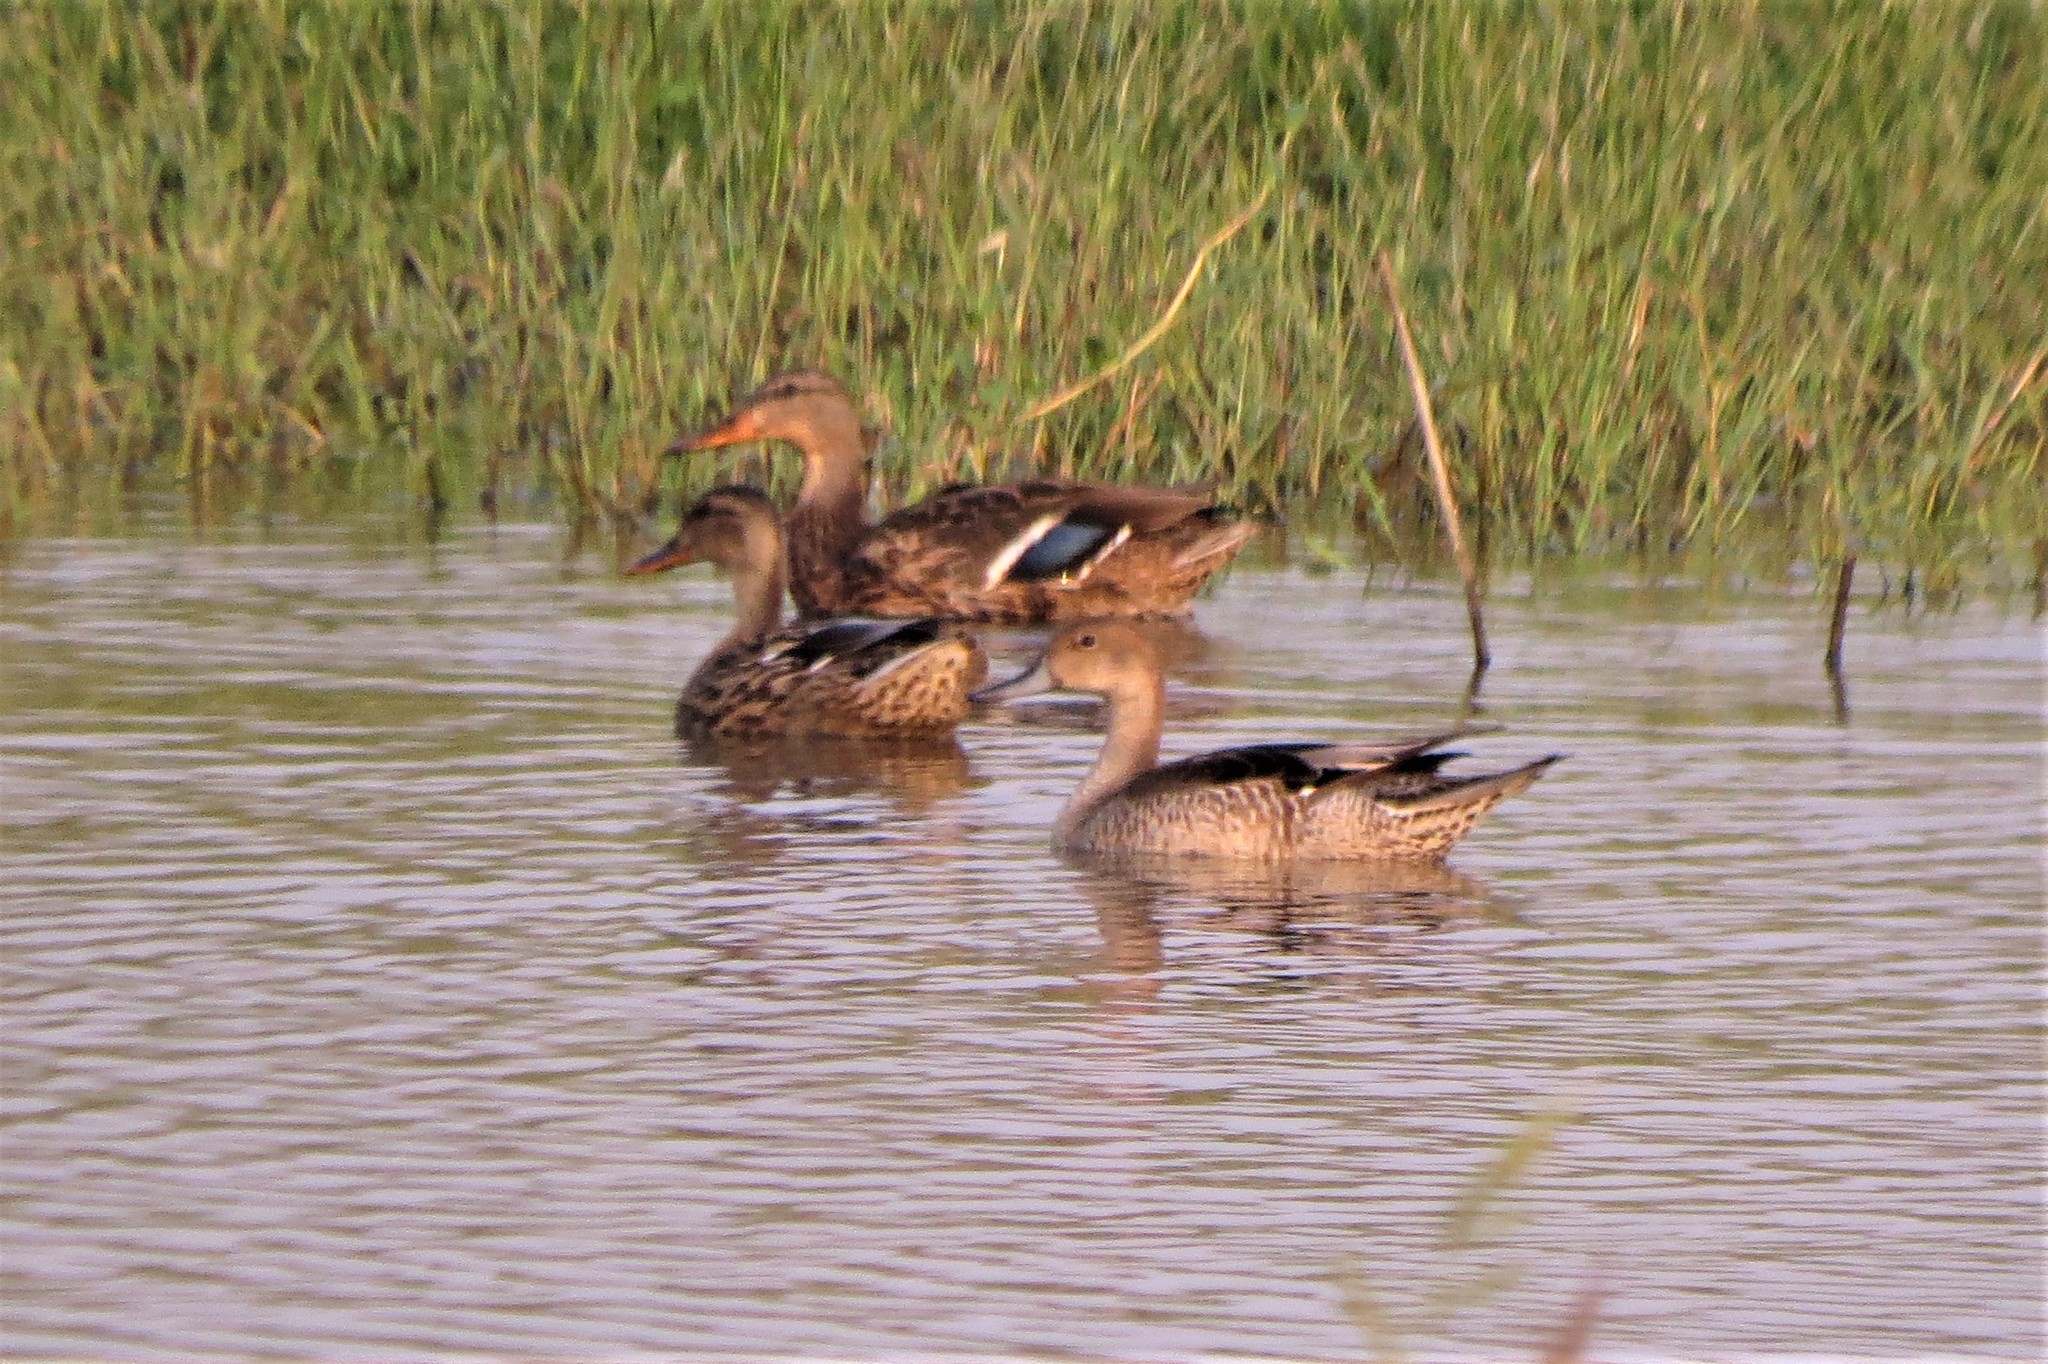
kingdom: Animalia
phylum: Chordata
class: Aves
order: Anseriformes
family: Anatidae
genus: Anas
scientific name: Anas acuta
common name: Northern pintail
